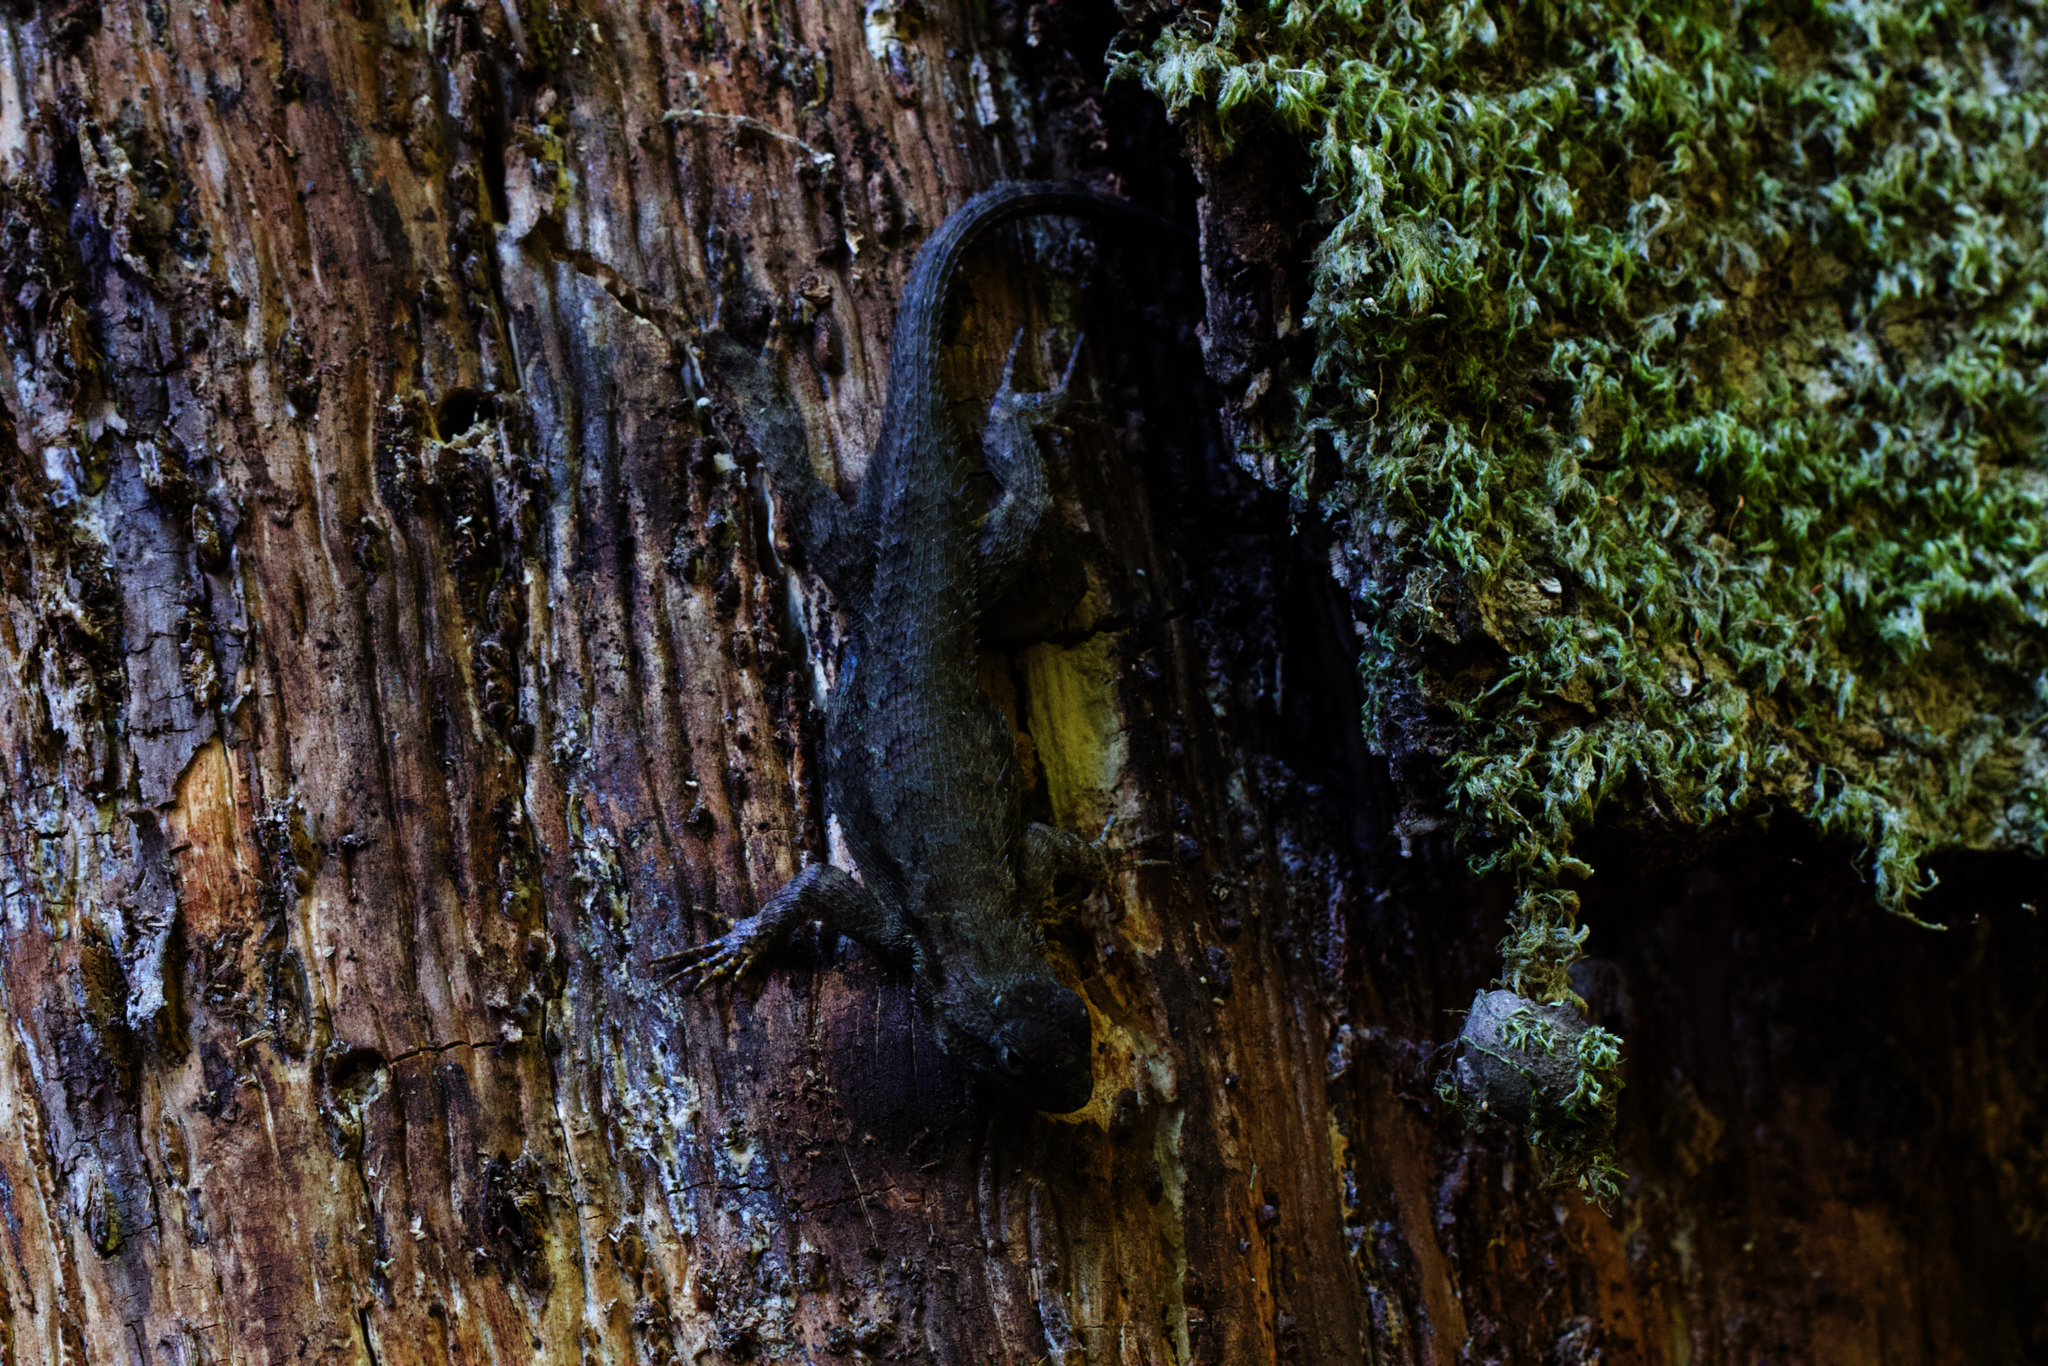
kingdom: Animalia
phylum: Chordata
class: Squamata
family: Phrynosomatidae
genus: Sceloporus
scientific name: Sceloporus occidentalis
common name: Western fence lizard
